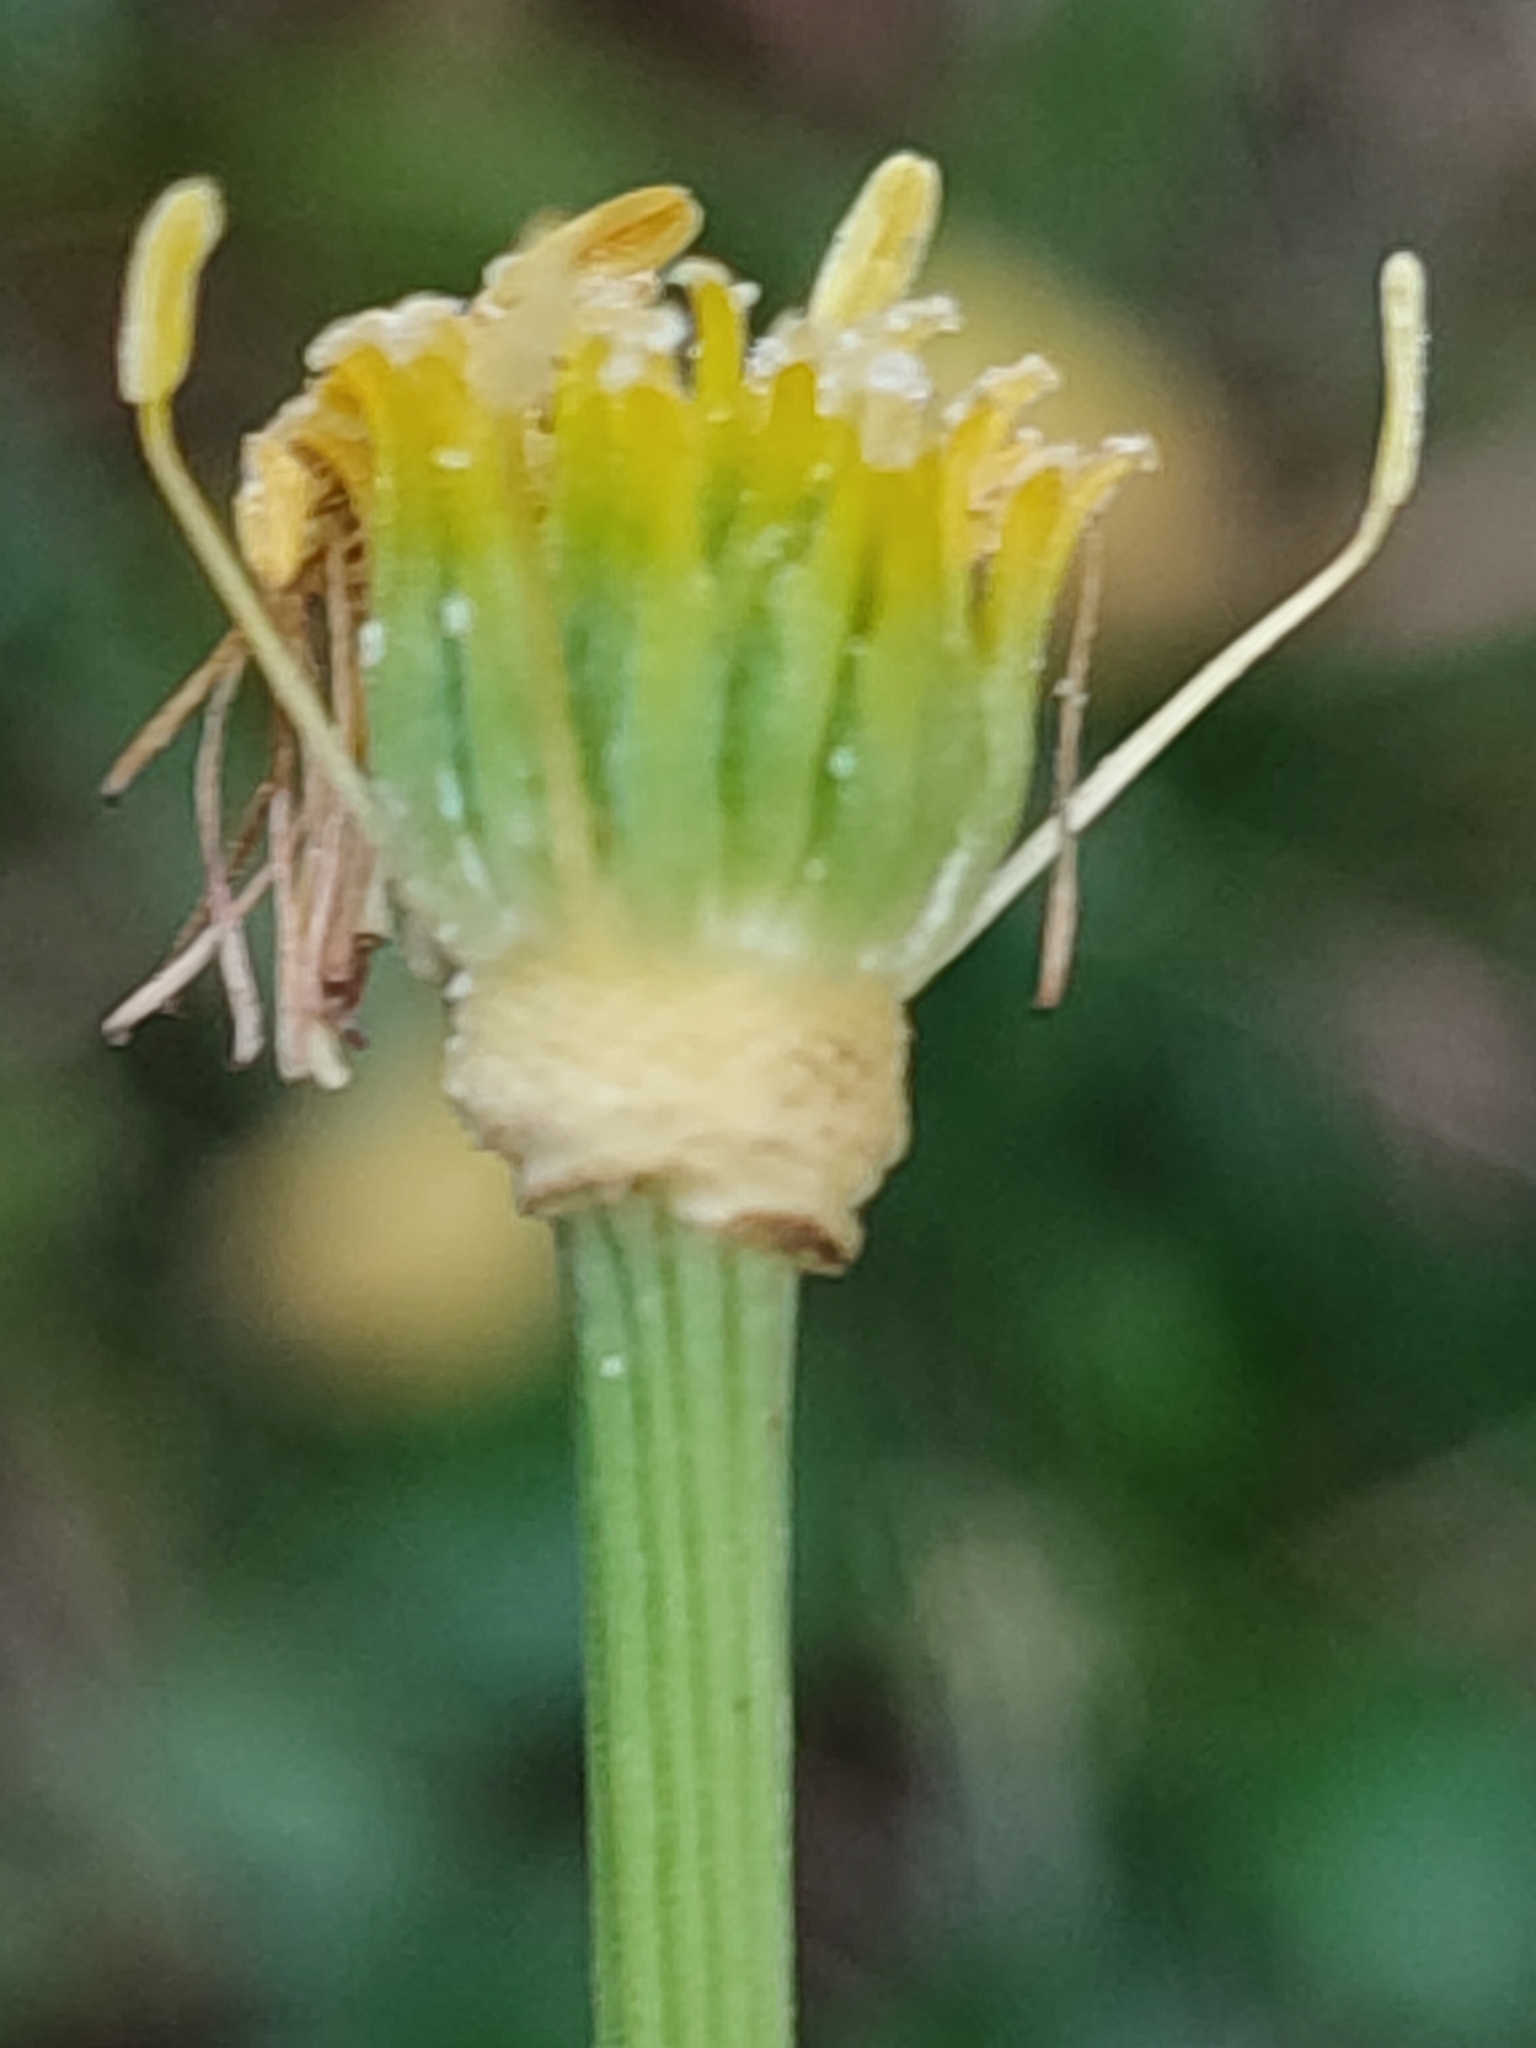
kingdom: Plantae
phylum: Tracheophyta
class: Magnoliopsida
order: Ranunculales
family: Ranunculaceae
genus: Trollius
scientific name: Trollius europaeus
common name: European globeflower
